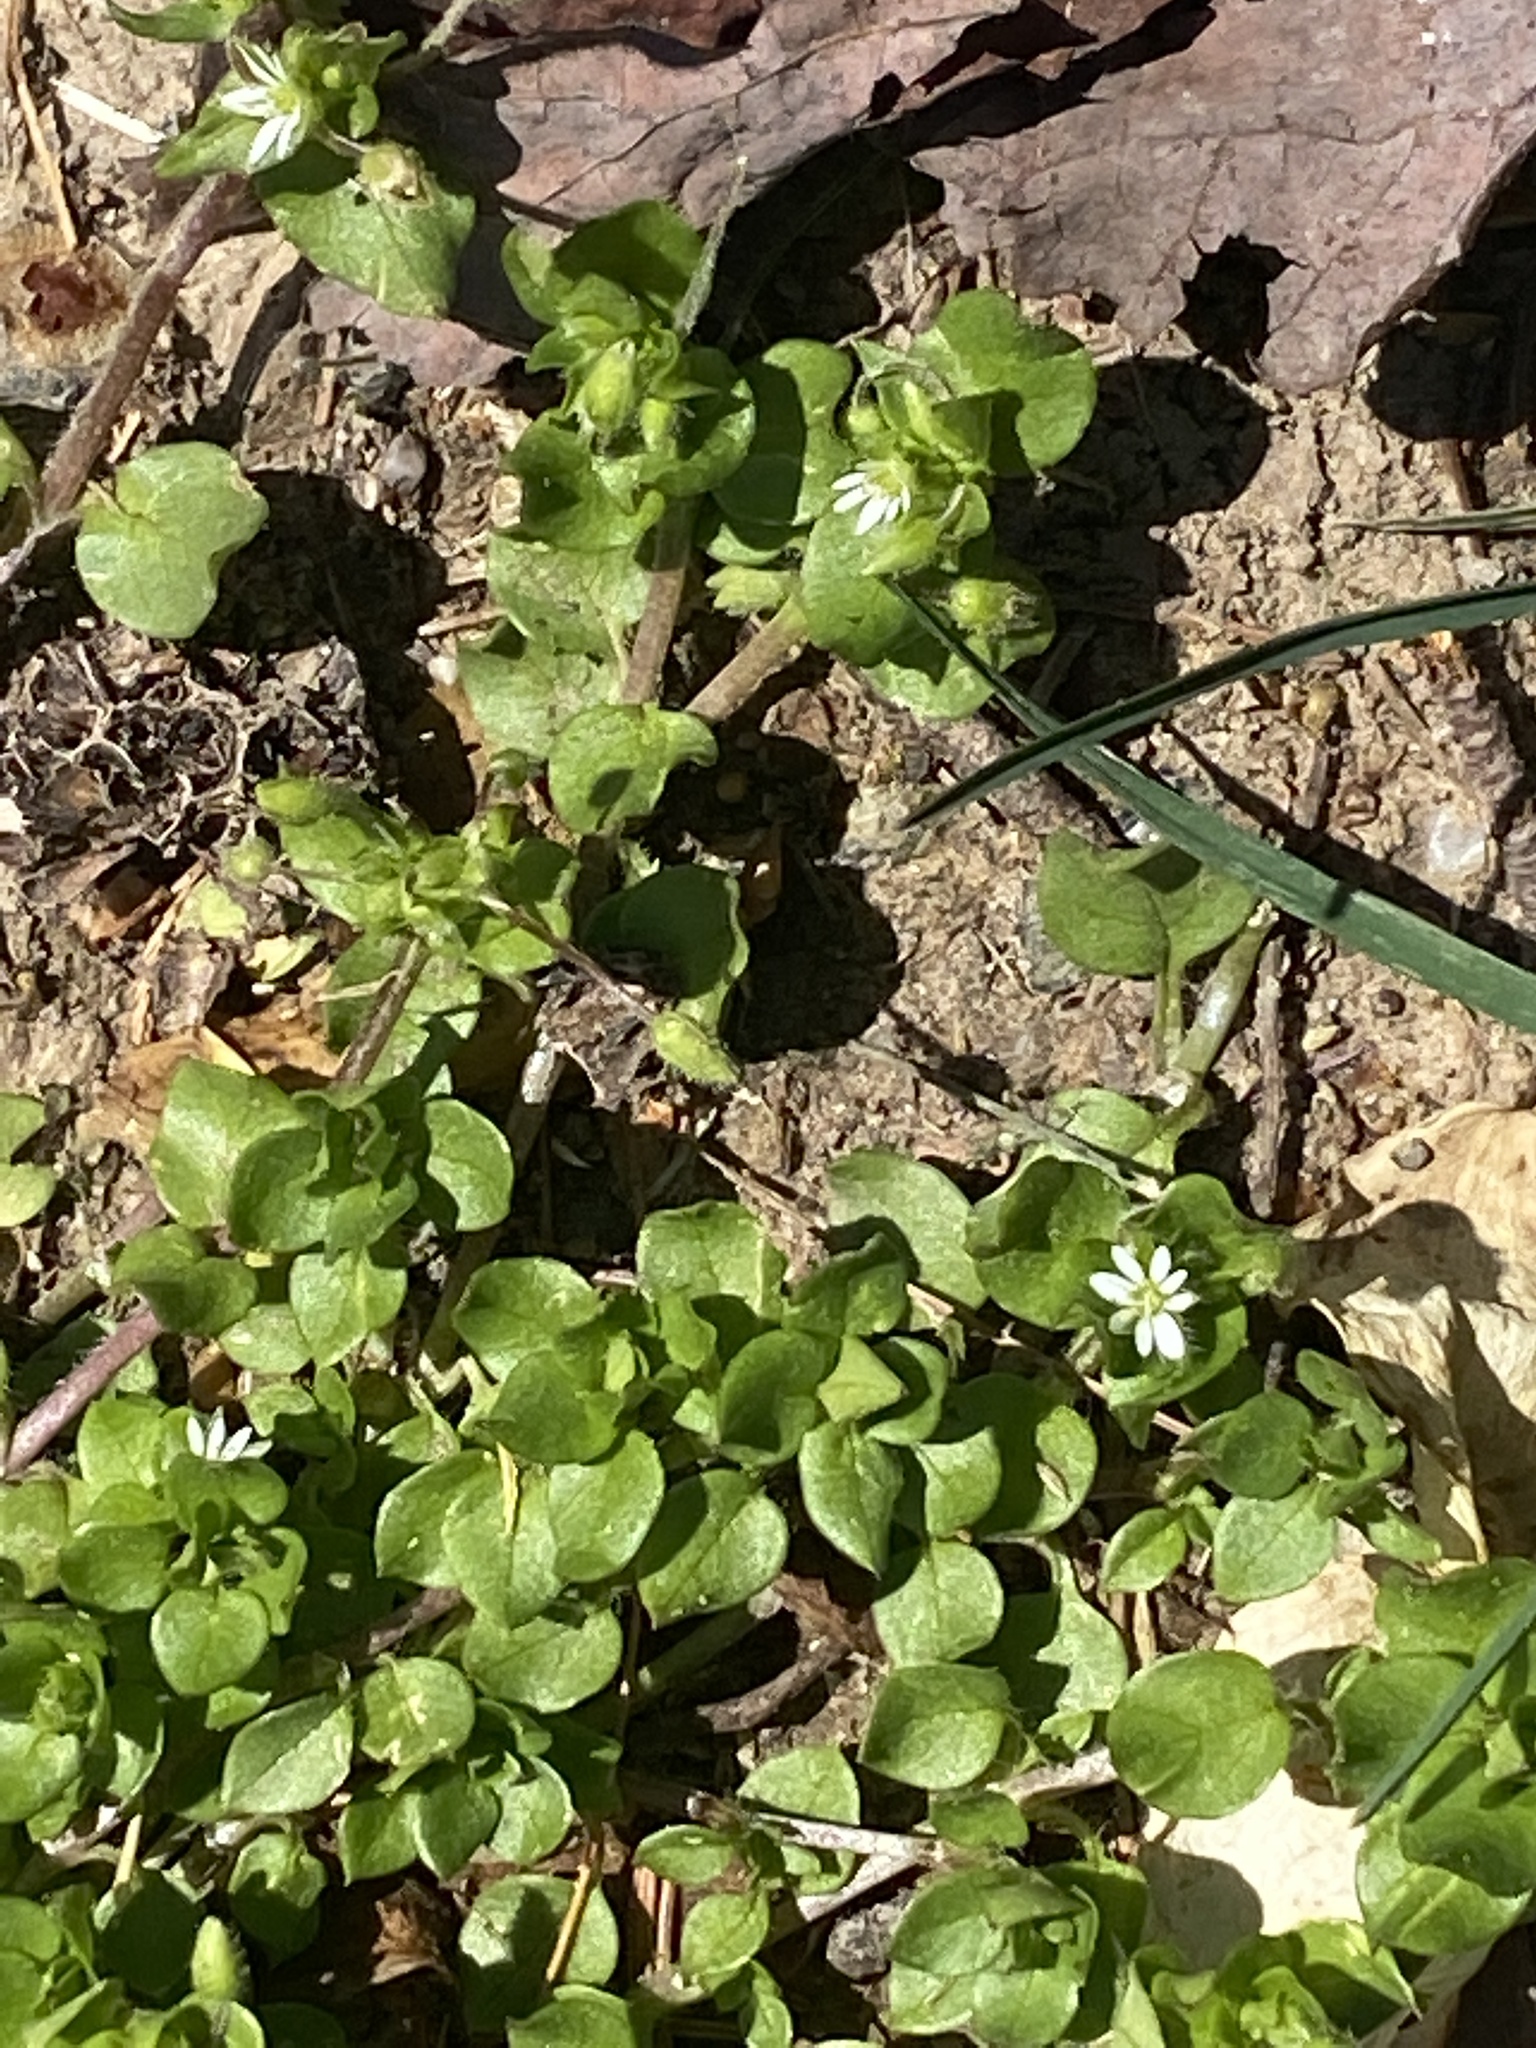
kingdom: Plantae
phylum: Tracheophyta
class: Magnoliopsida
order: Caryophyllales
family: Caryophyllaceae
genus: Stellaria
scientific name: Stellaria media
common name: Common chickweed
